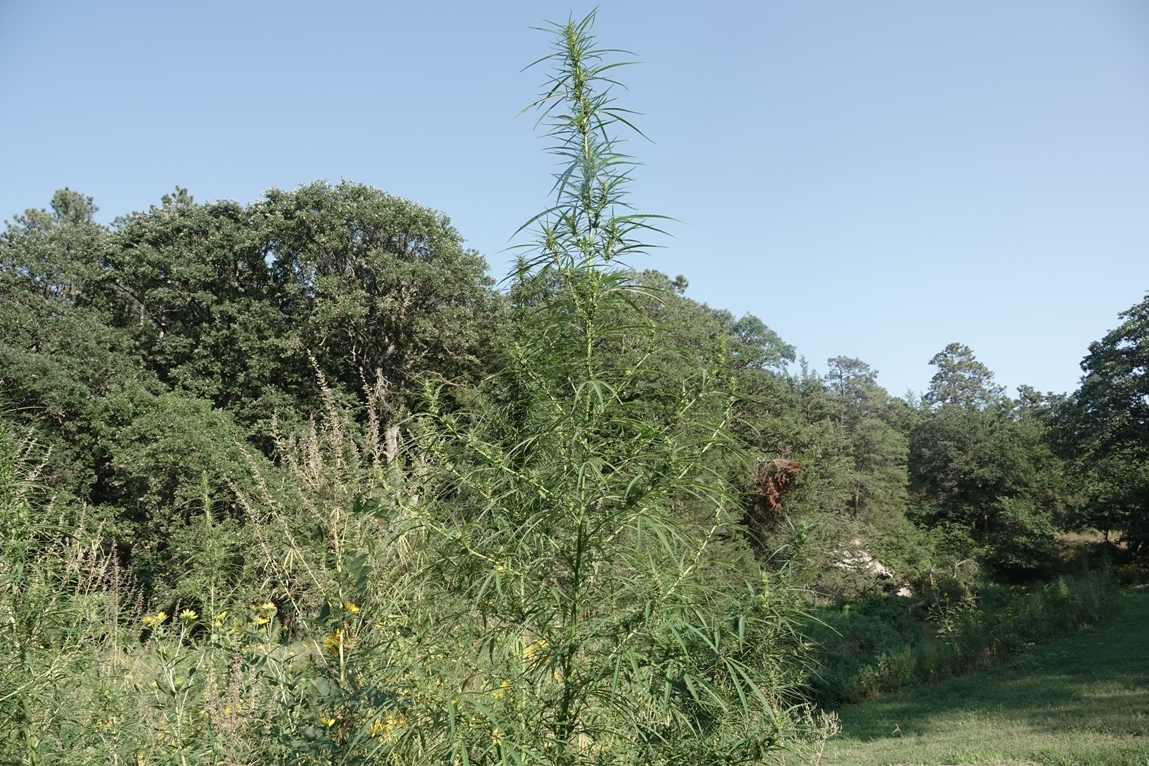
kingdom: Plantae
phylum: Tracheophyta
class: Magnoliopsida
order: Rosales
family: Cannabaceae
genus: Cannabis
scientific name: Cannabis sativa
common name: Hemp
